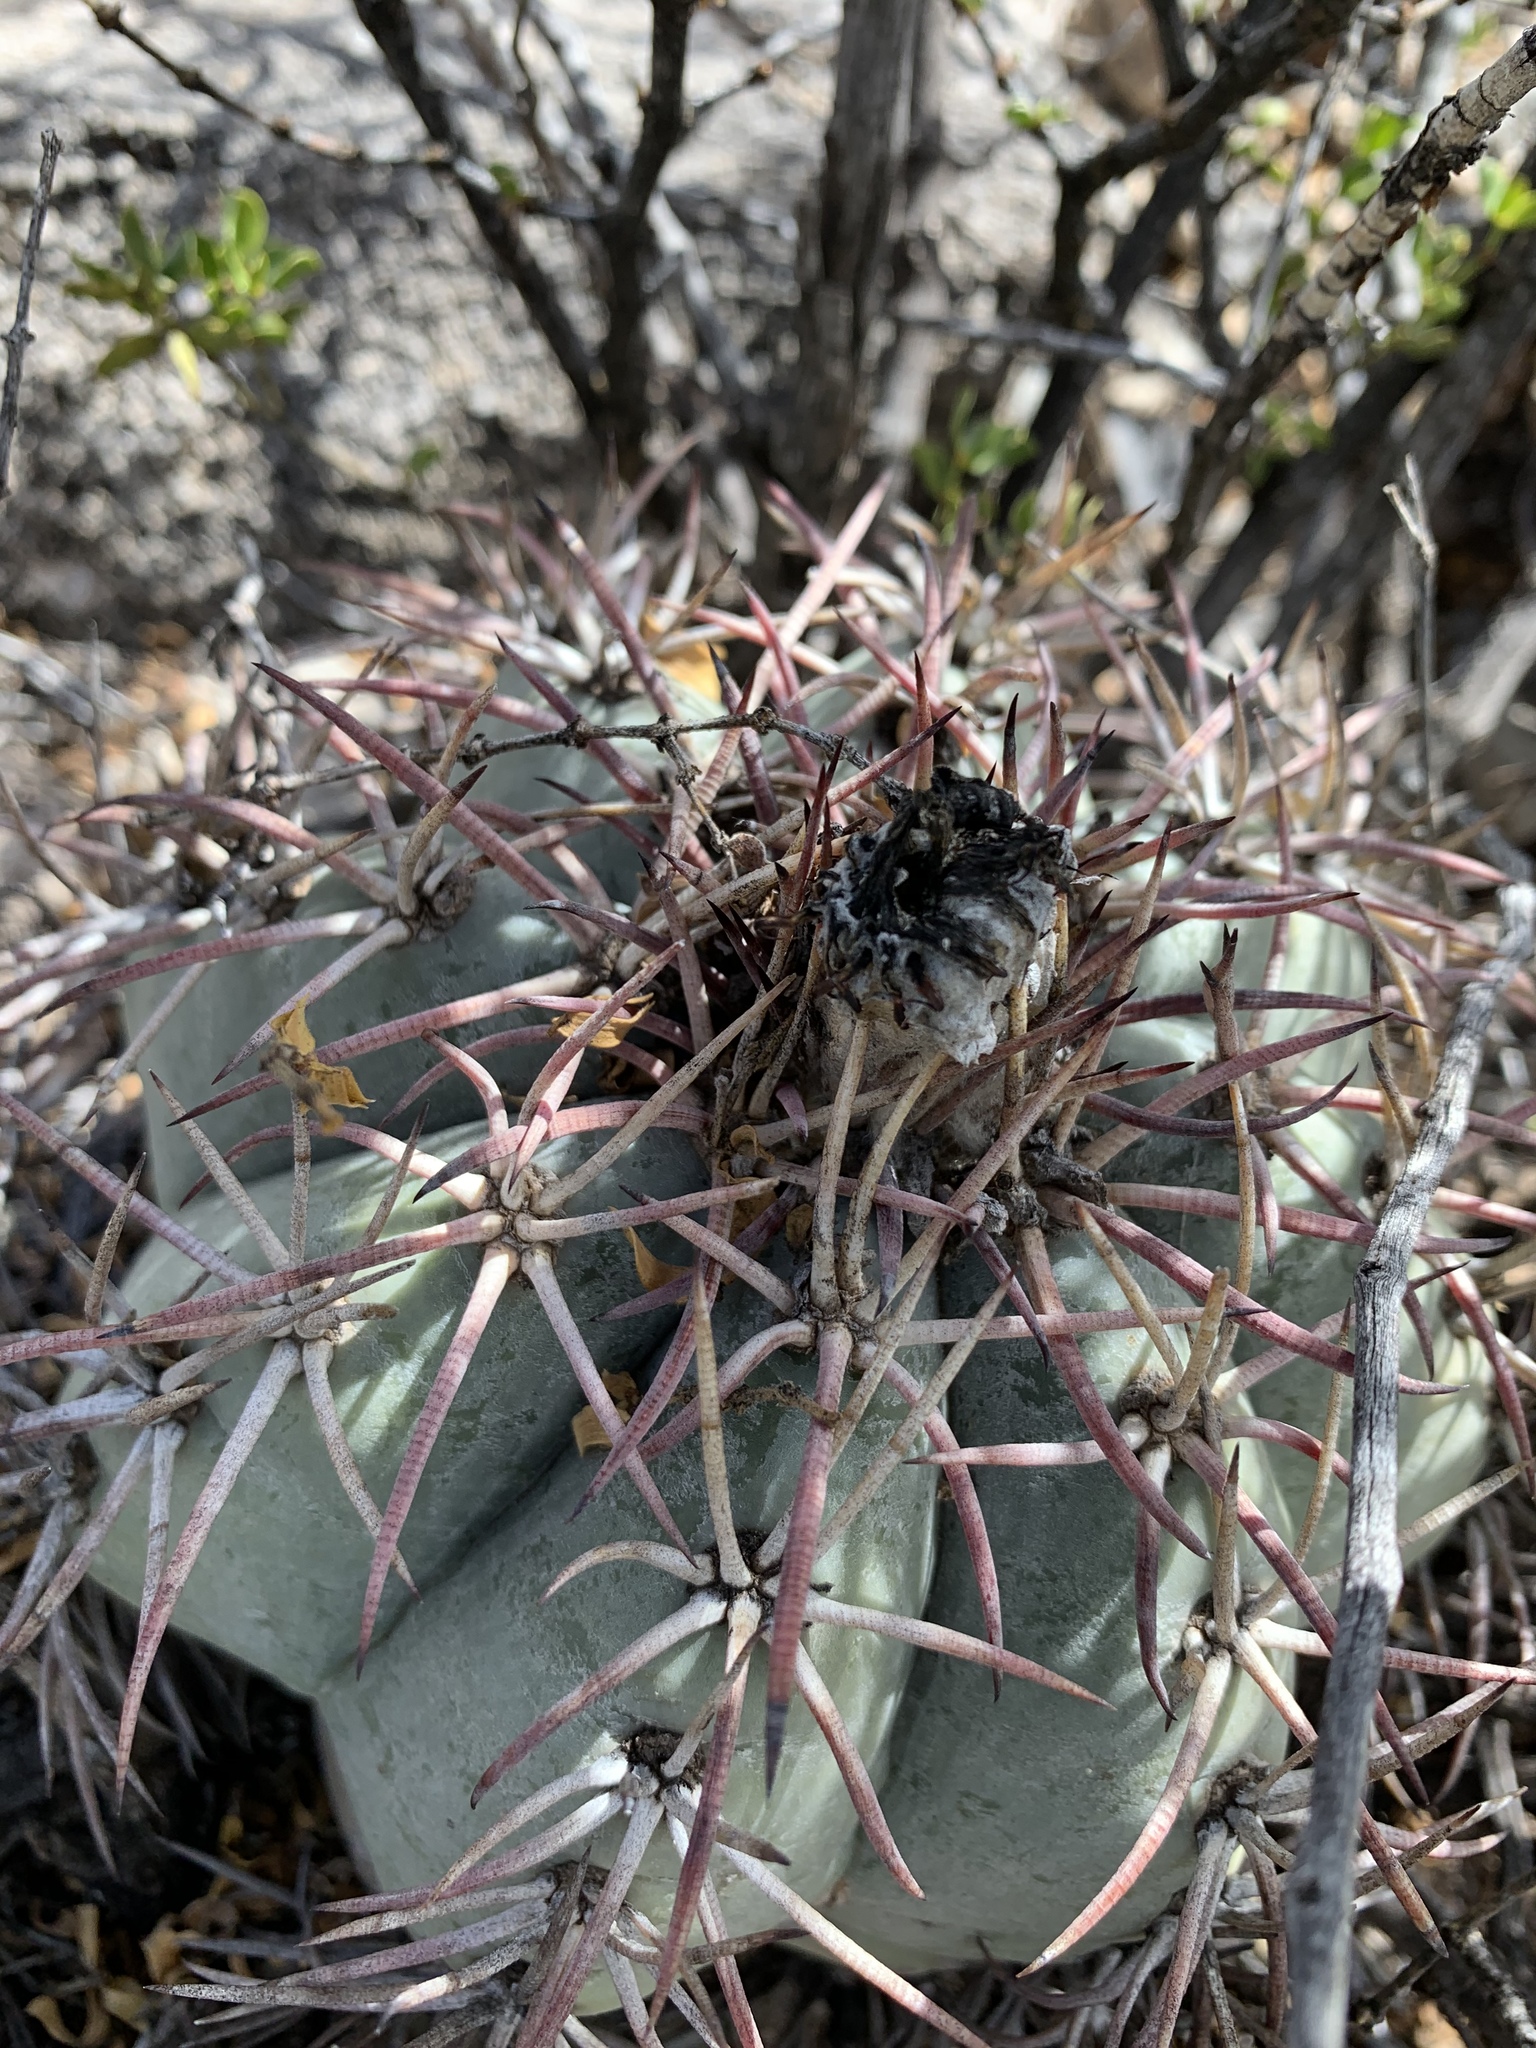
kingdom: Plantae
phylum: Tracheophyta
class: Magnoliopsida
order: Caryophyllales
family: Cactaceae
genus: Echinocactus
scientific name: Echinocactus horizonthalonius
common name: Devilshead
